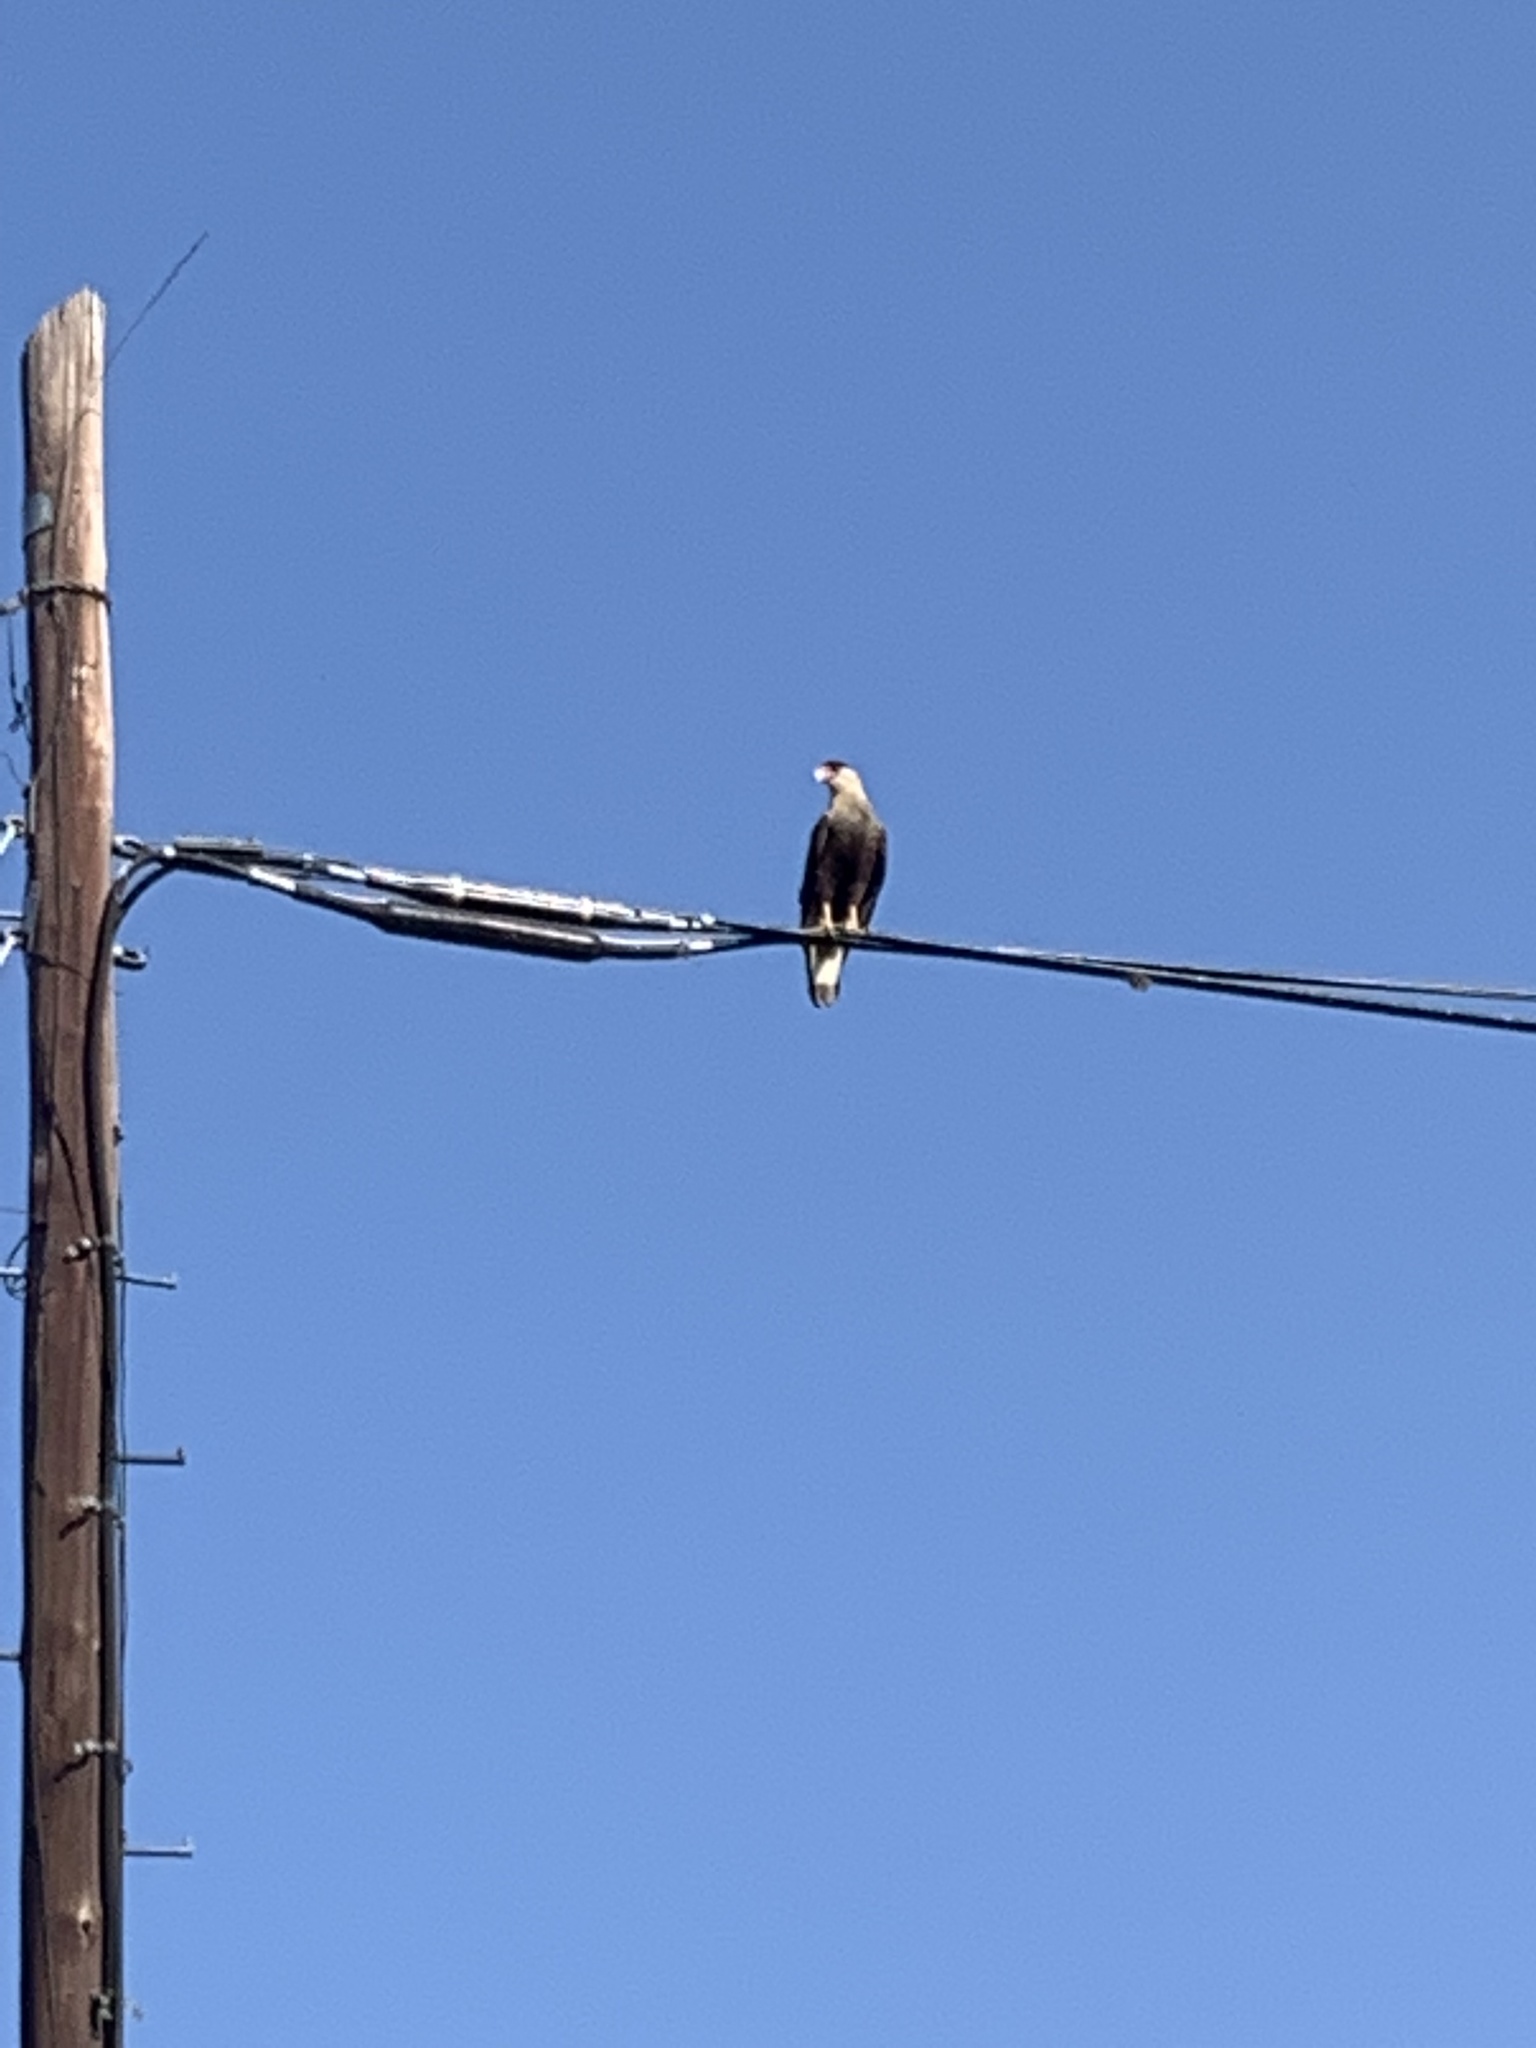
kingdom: Animalia
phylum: Chordata
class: Aves
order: Falconiformes
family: Falconidae
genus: Caracara
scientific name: Caracara plancus
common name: Southern caracara
